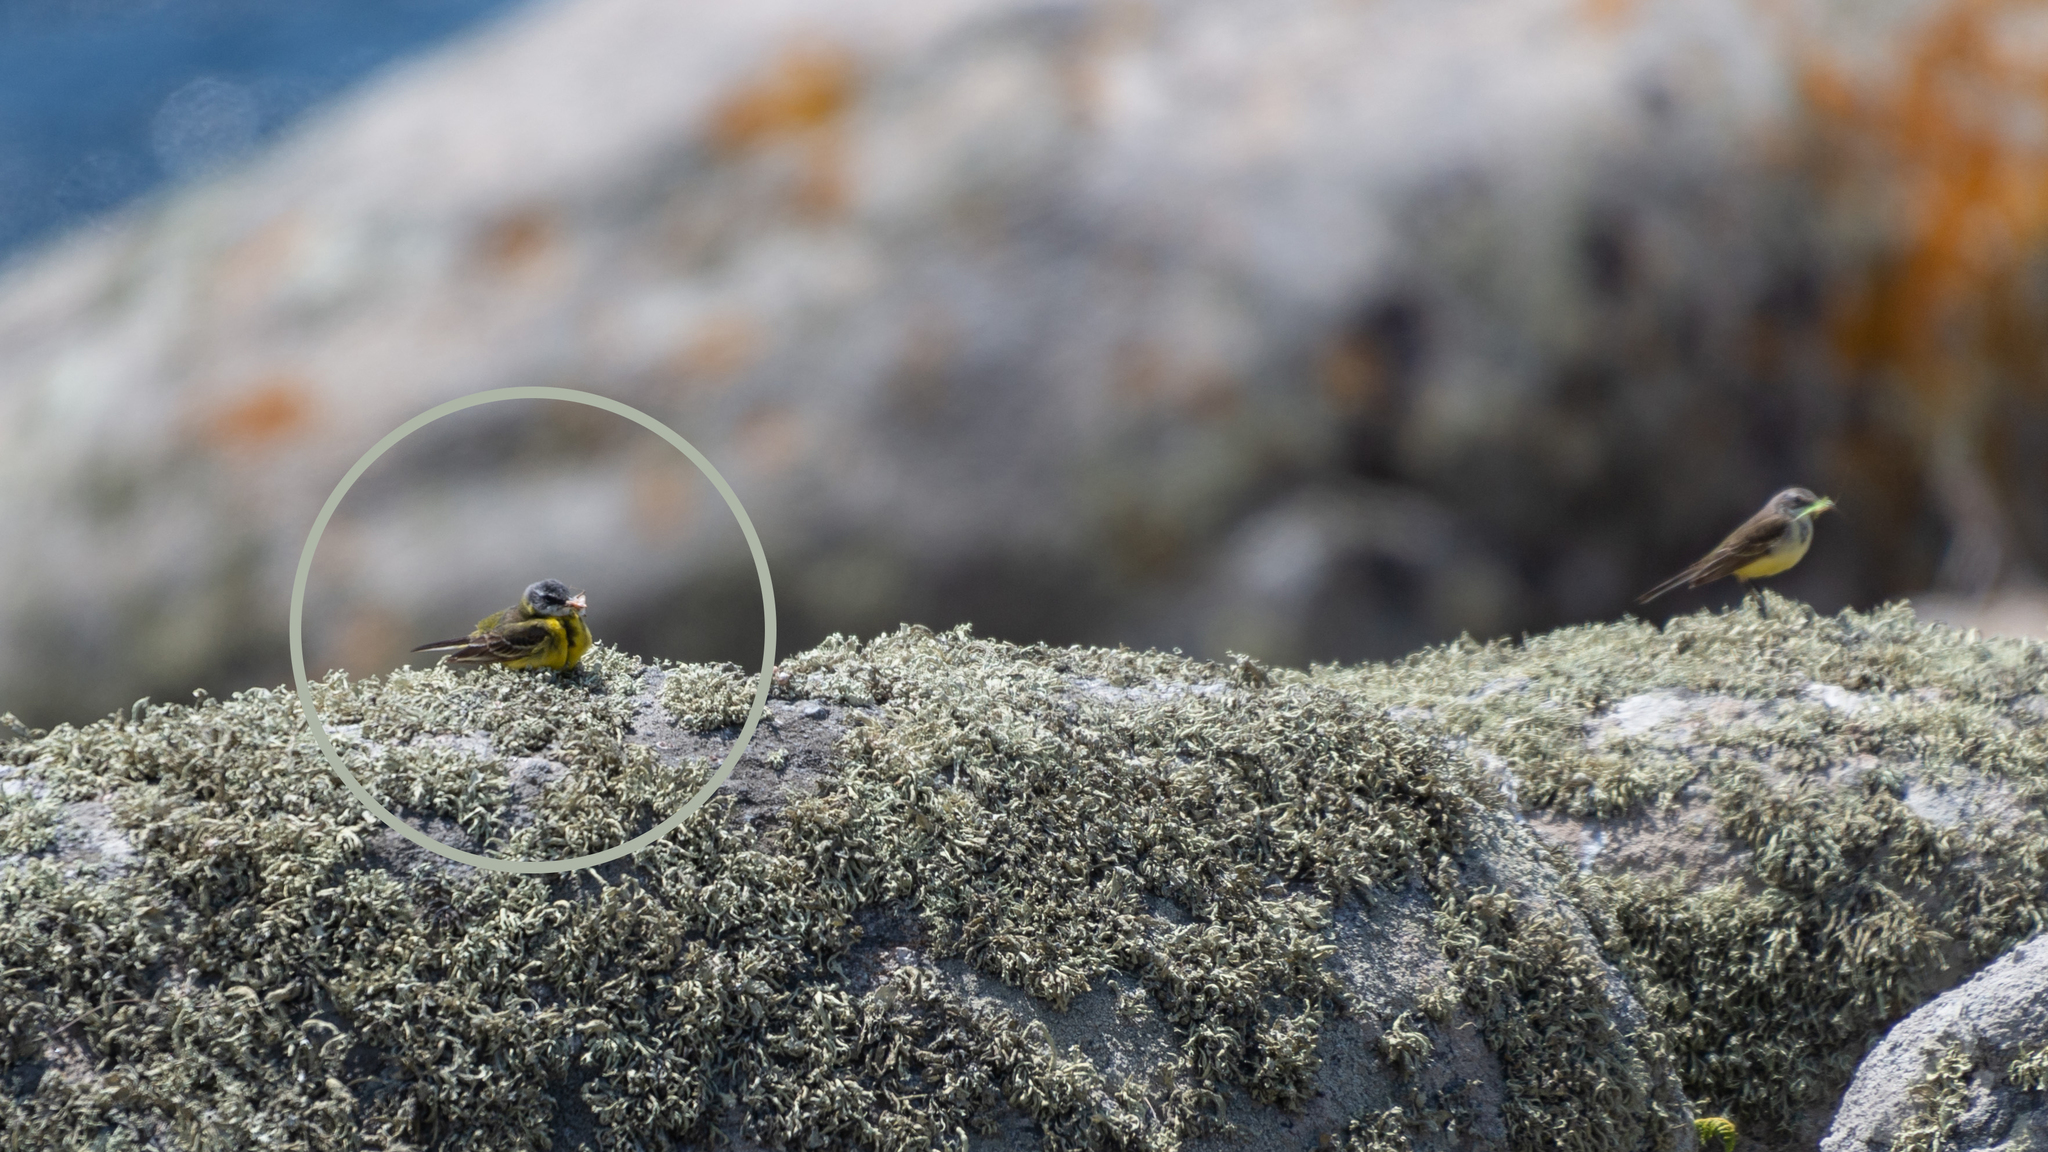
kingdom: Animalia
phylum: Chordata
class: Aves
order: Passeriformes
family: Motacillidae
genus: Motacilla
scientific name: Motacilla flava
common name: Western yellow wagtail
